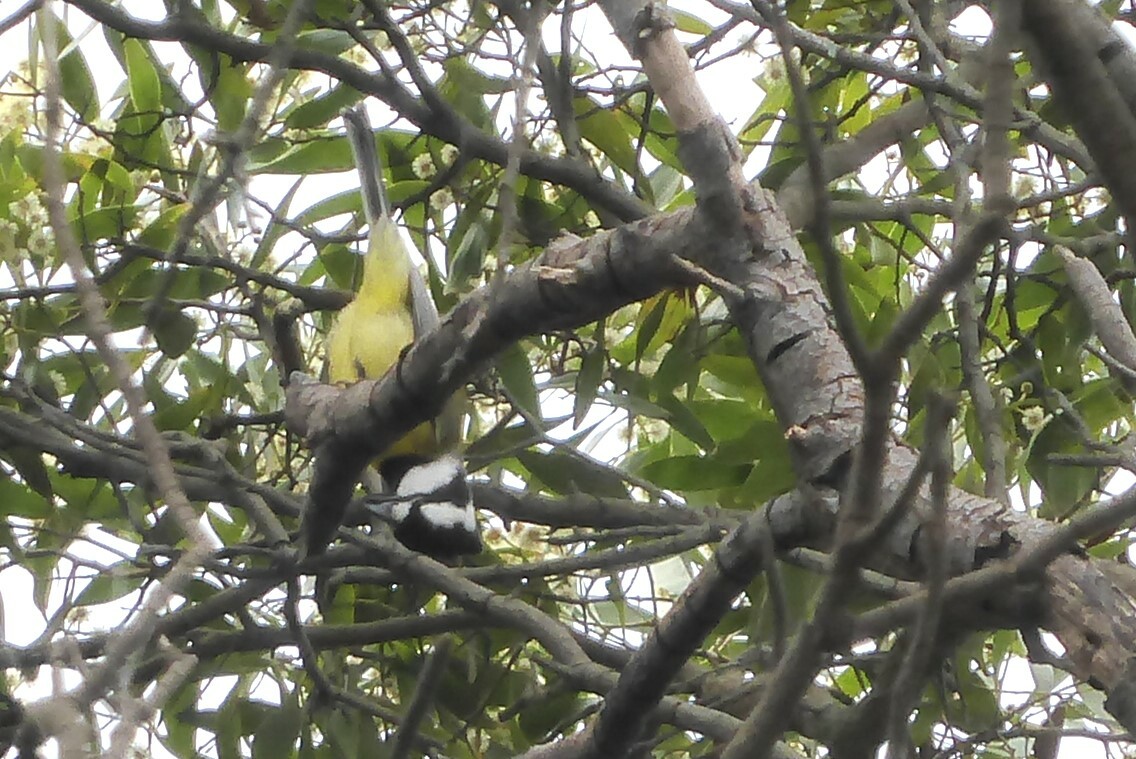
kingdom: Animalia
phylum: Chordata
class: Aves
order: Passeriformes
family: Pachycephalidae
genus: Falcunculus
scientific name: Falcunculus frontatus
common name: Crested shriketit
